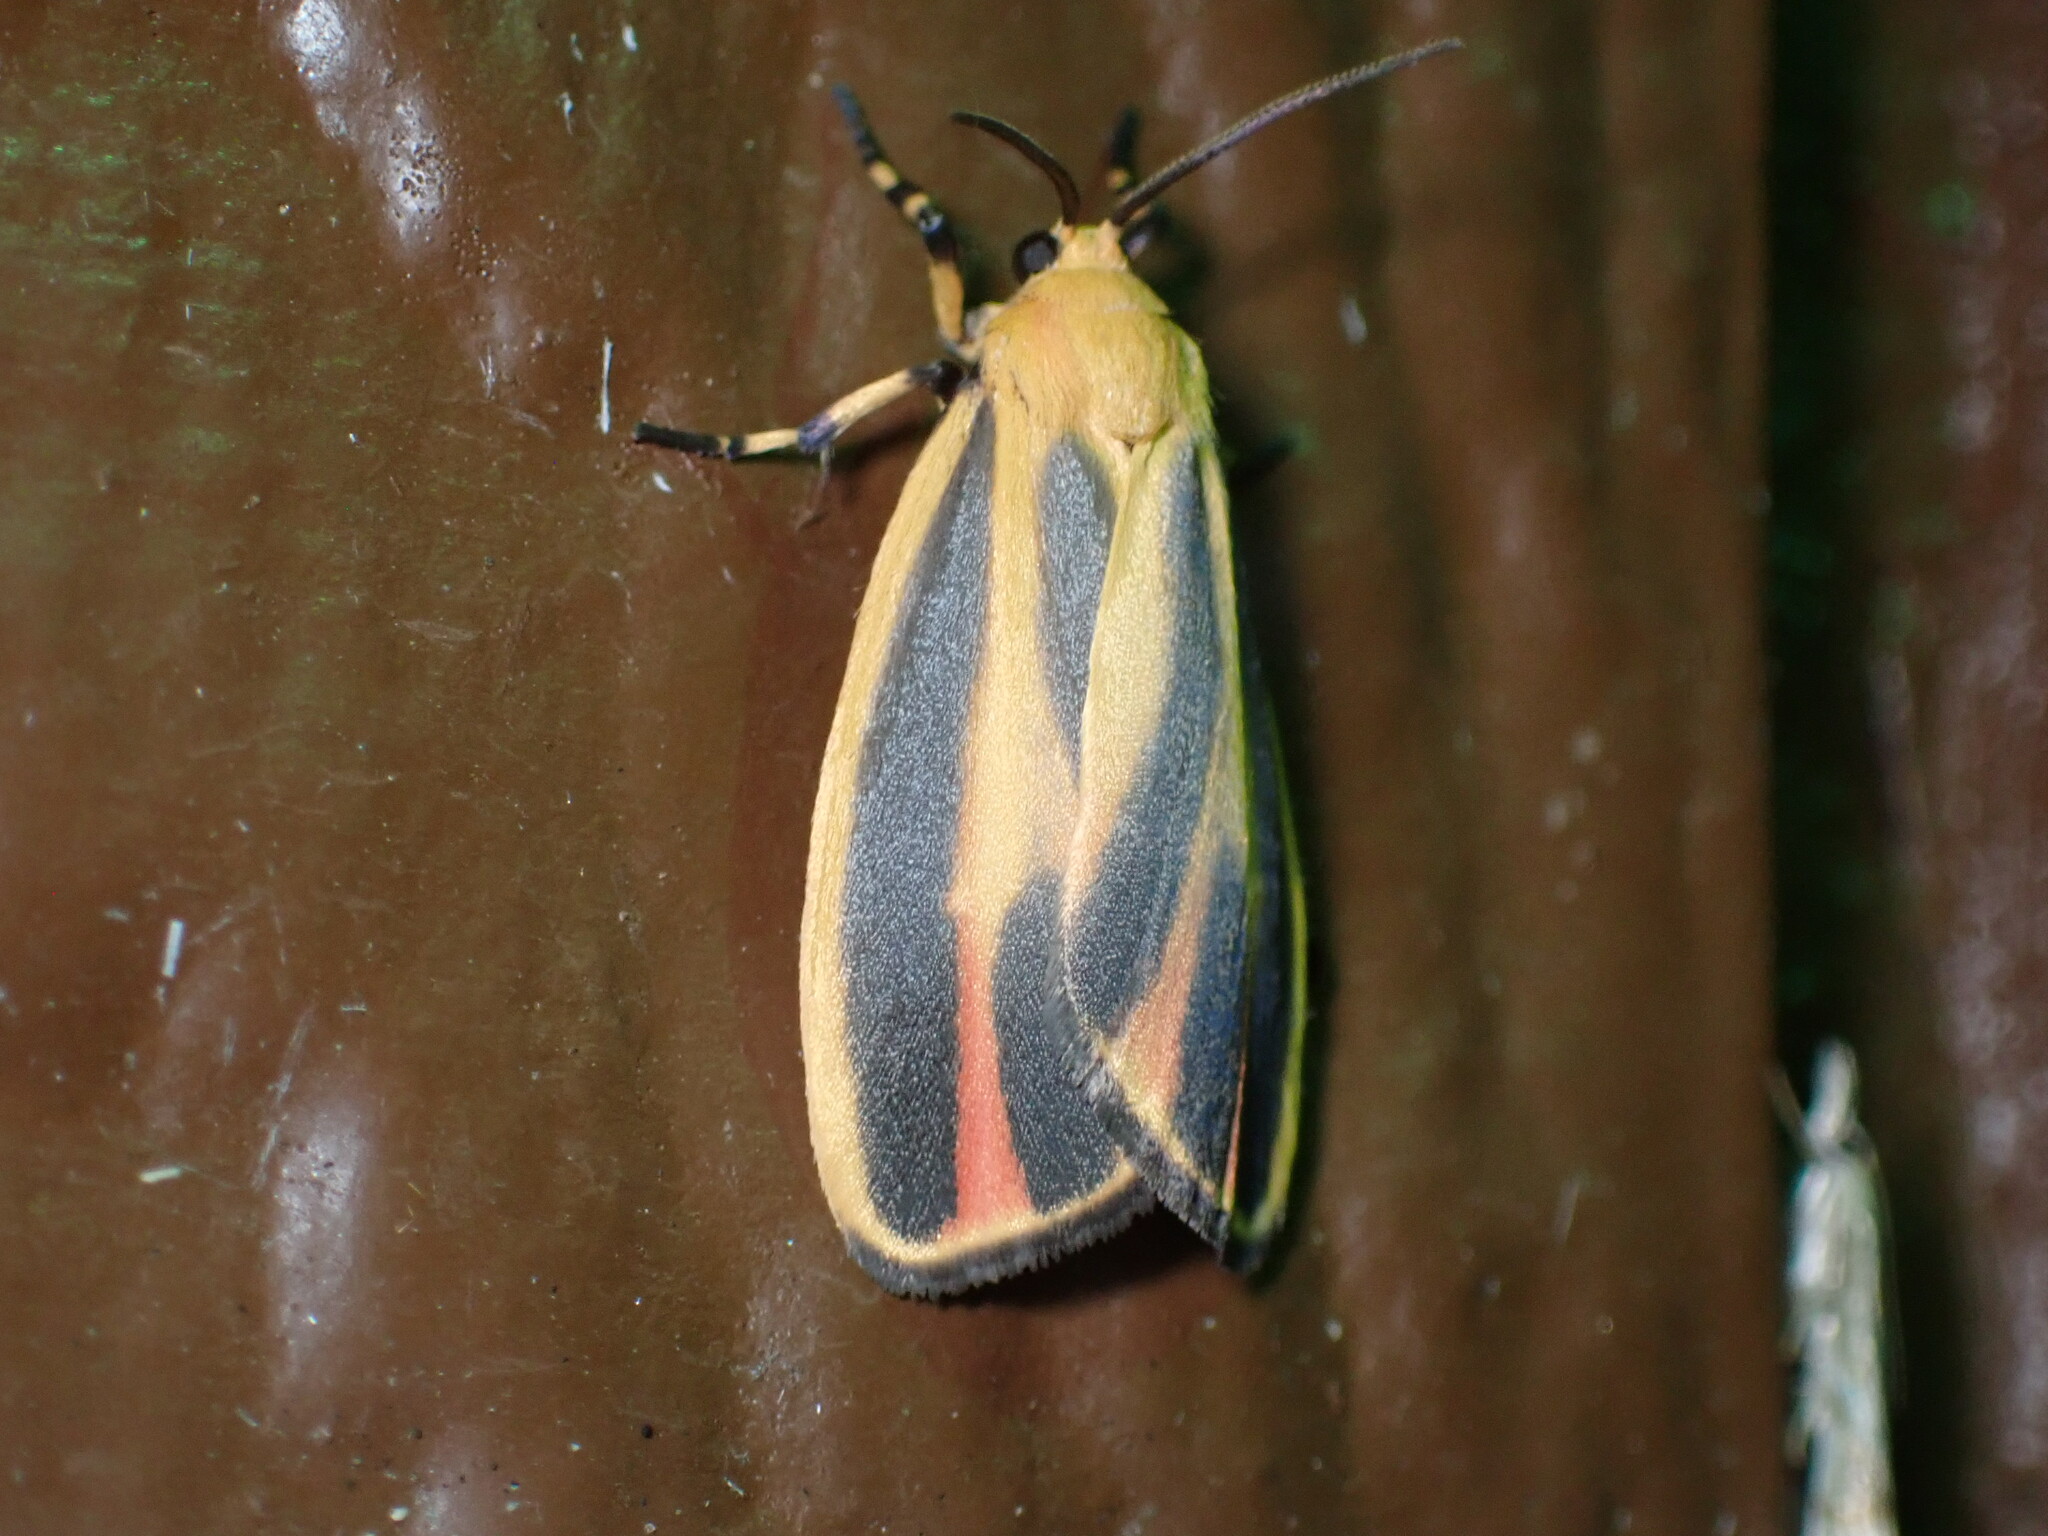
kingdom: Animalia
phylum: Arthropoda
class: Insecta
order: Lepidoptera
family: Erebidae
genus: Hypoprepia
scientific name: Hypoprepia fucosa
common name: Painted lichen moth
